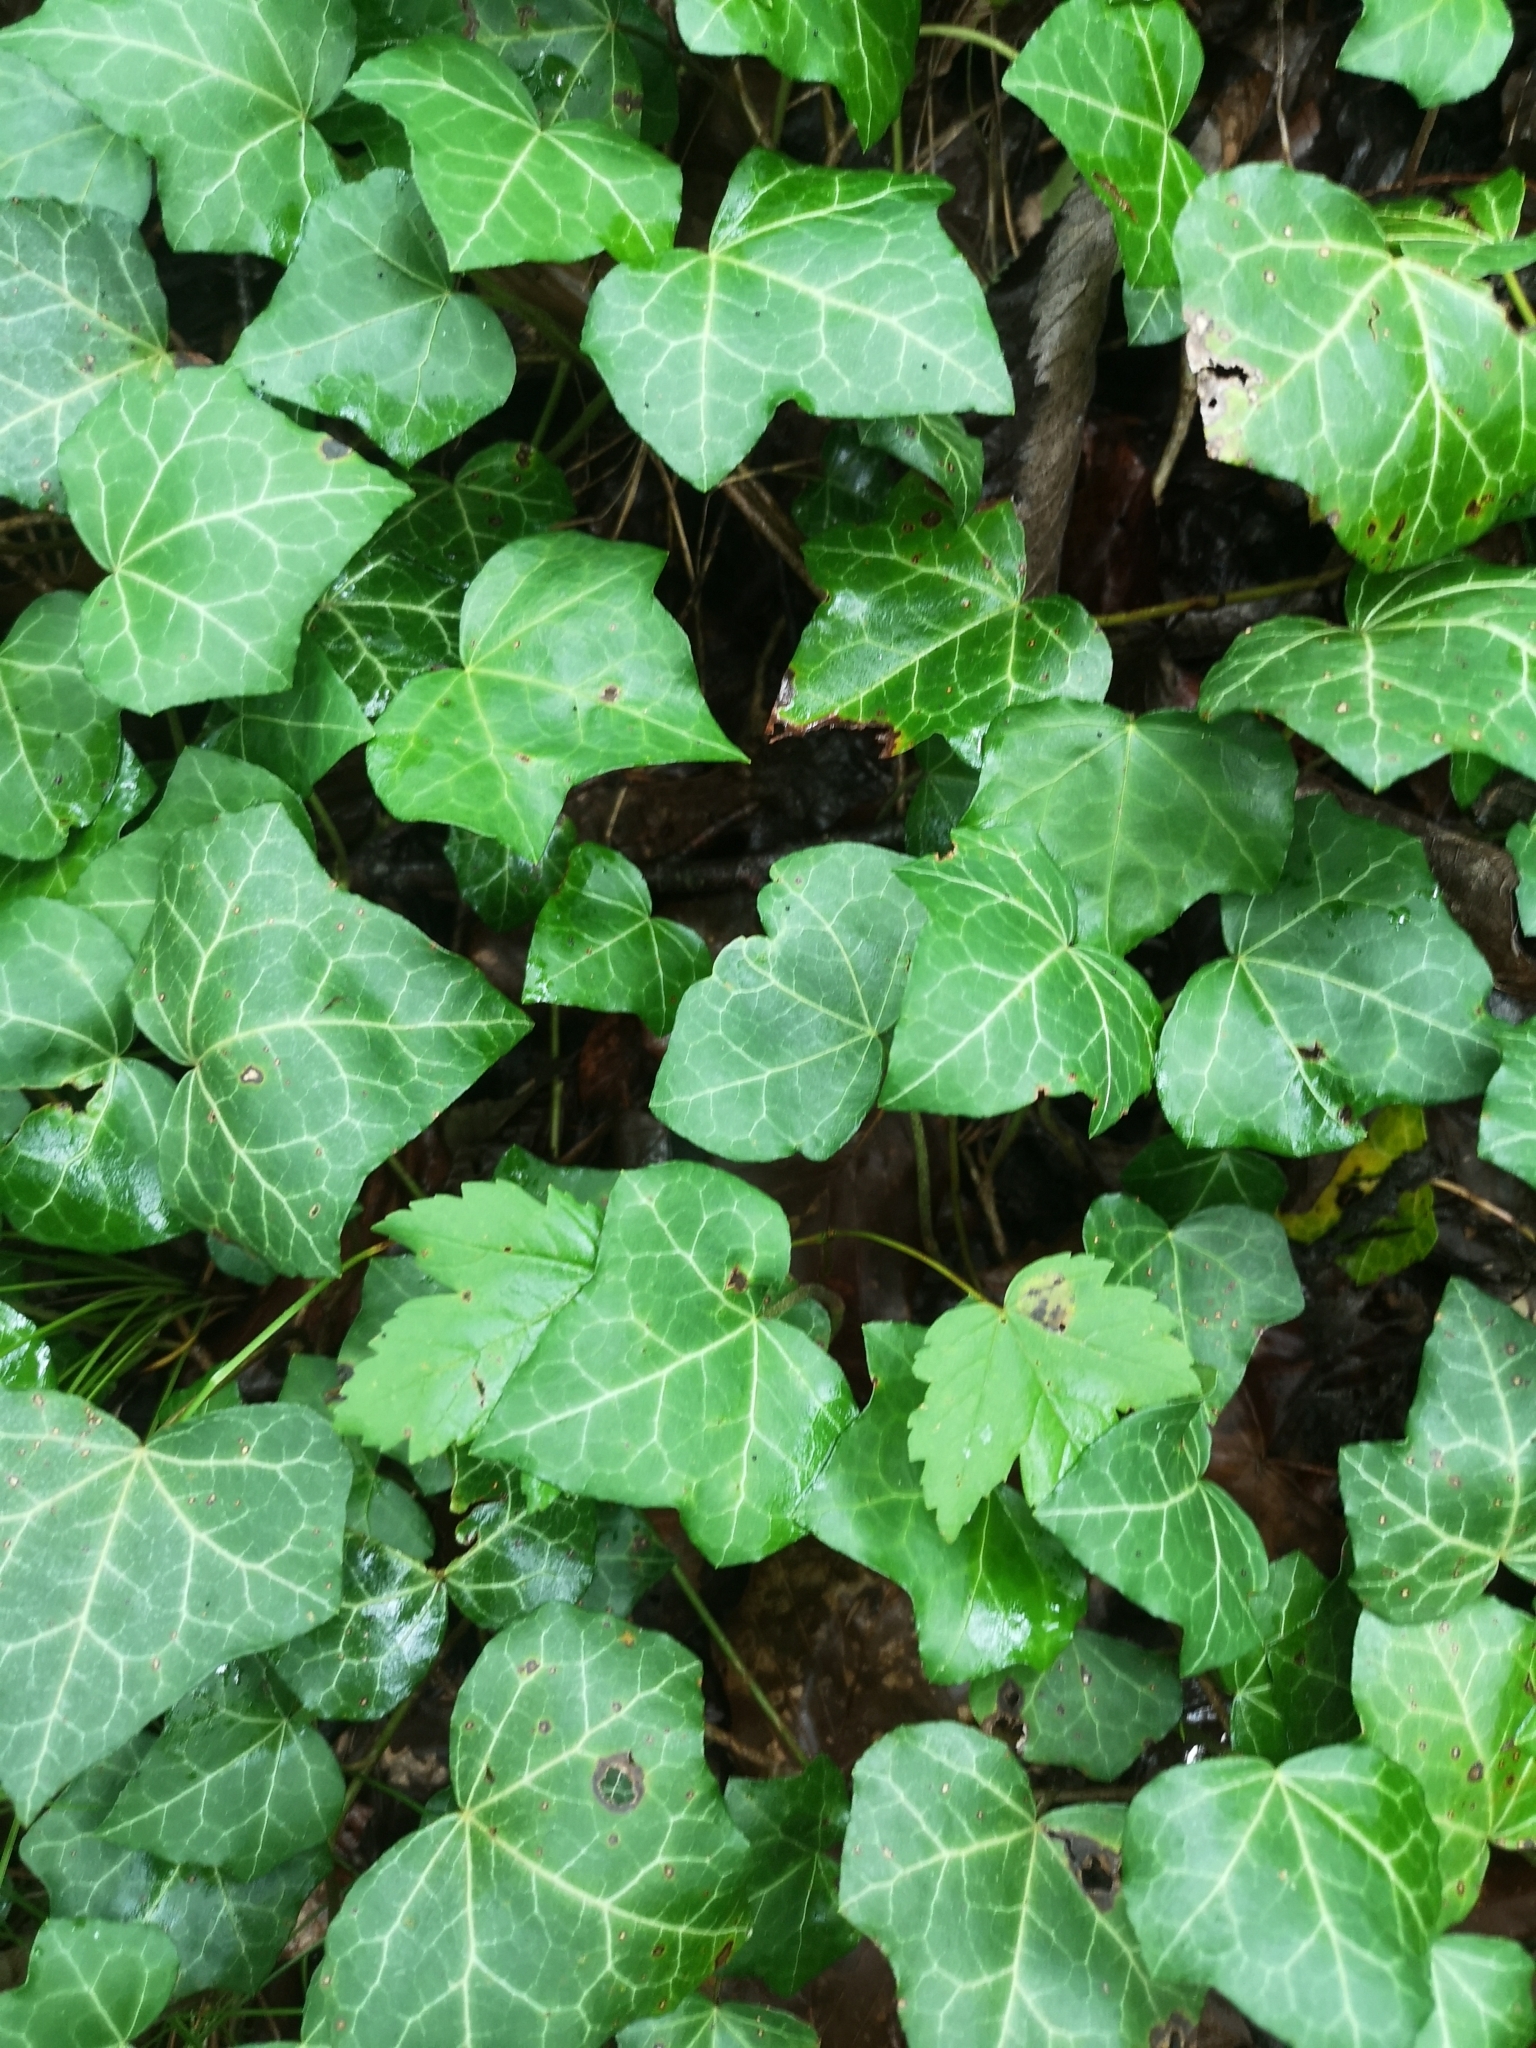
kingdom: Plantae
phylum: Tracheophyta
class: Magnoliopsida
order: Apiales
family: Araliaceae
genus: Hedera
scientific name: Hedera helix
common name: Ivy
